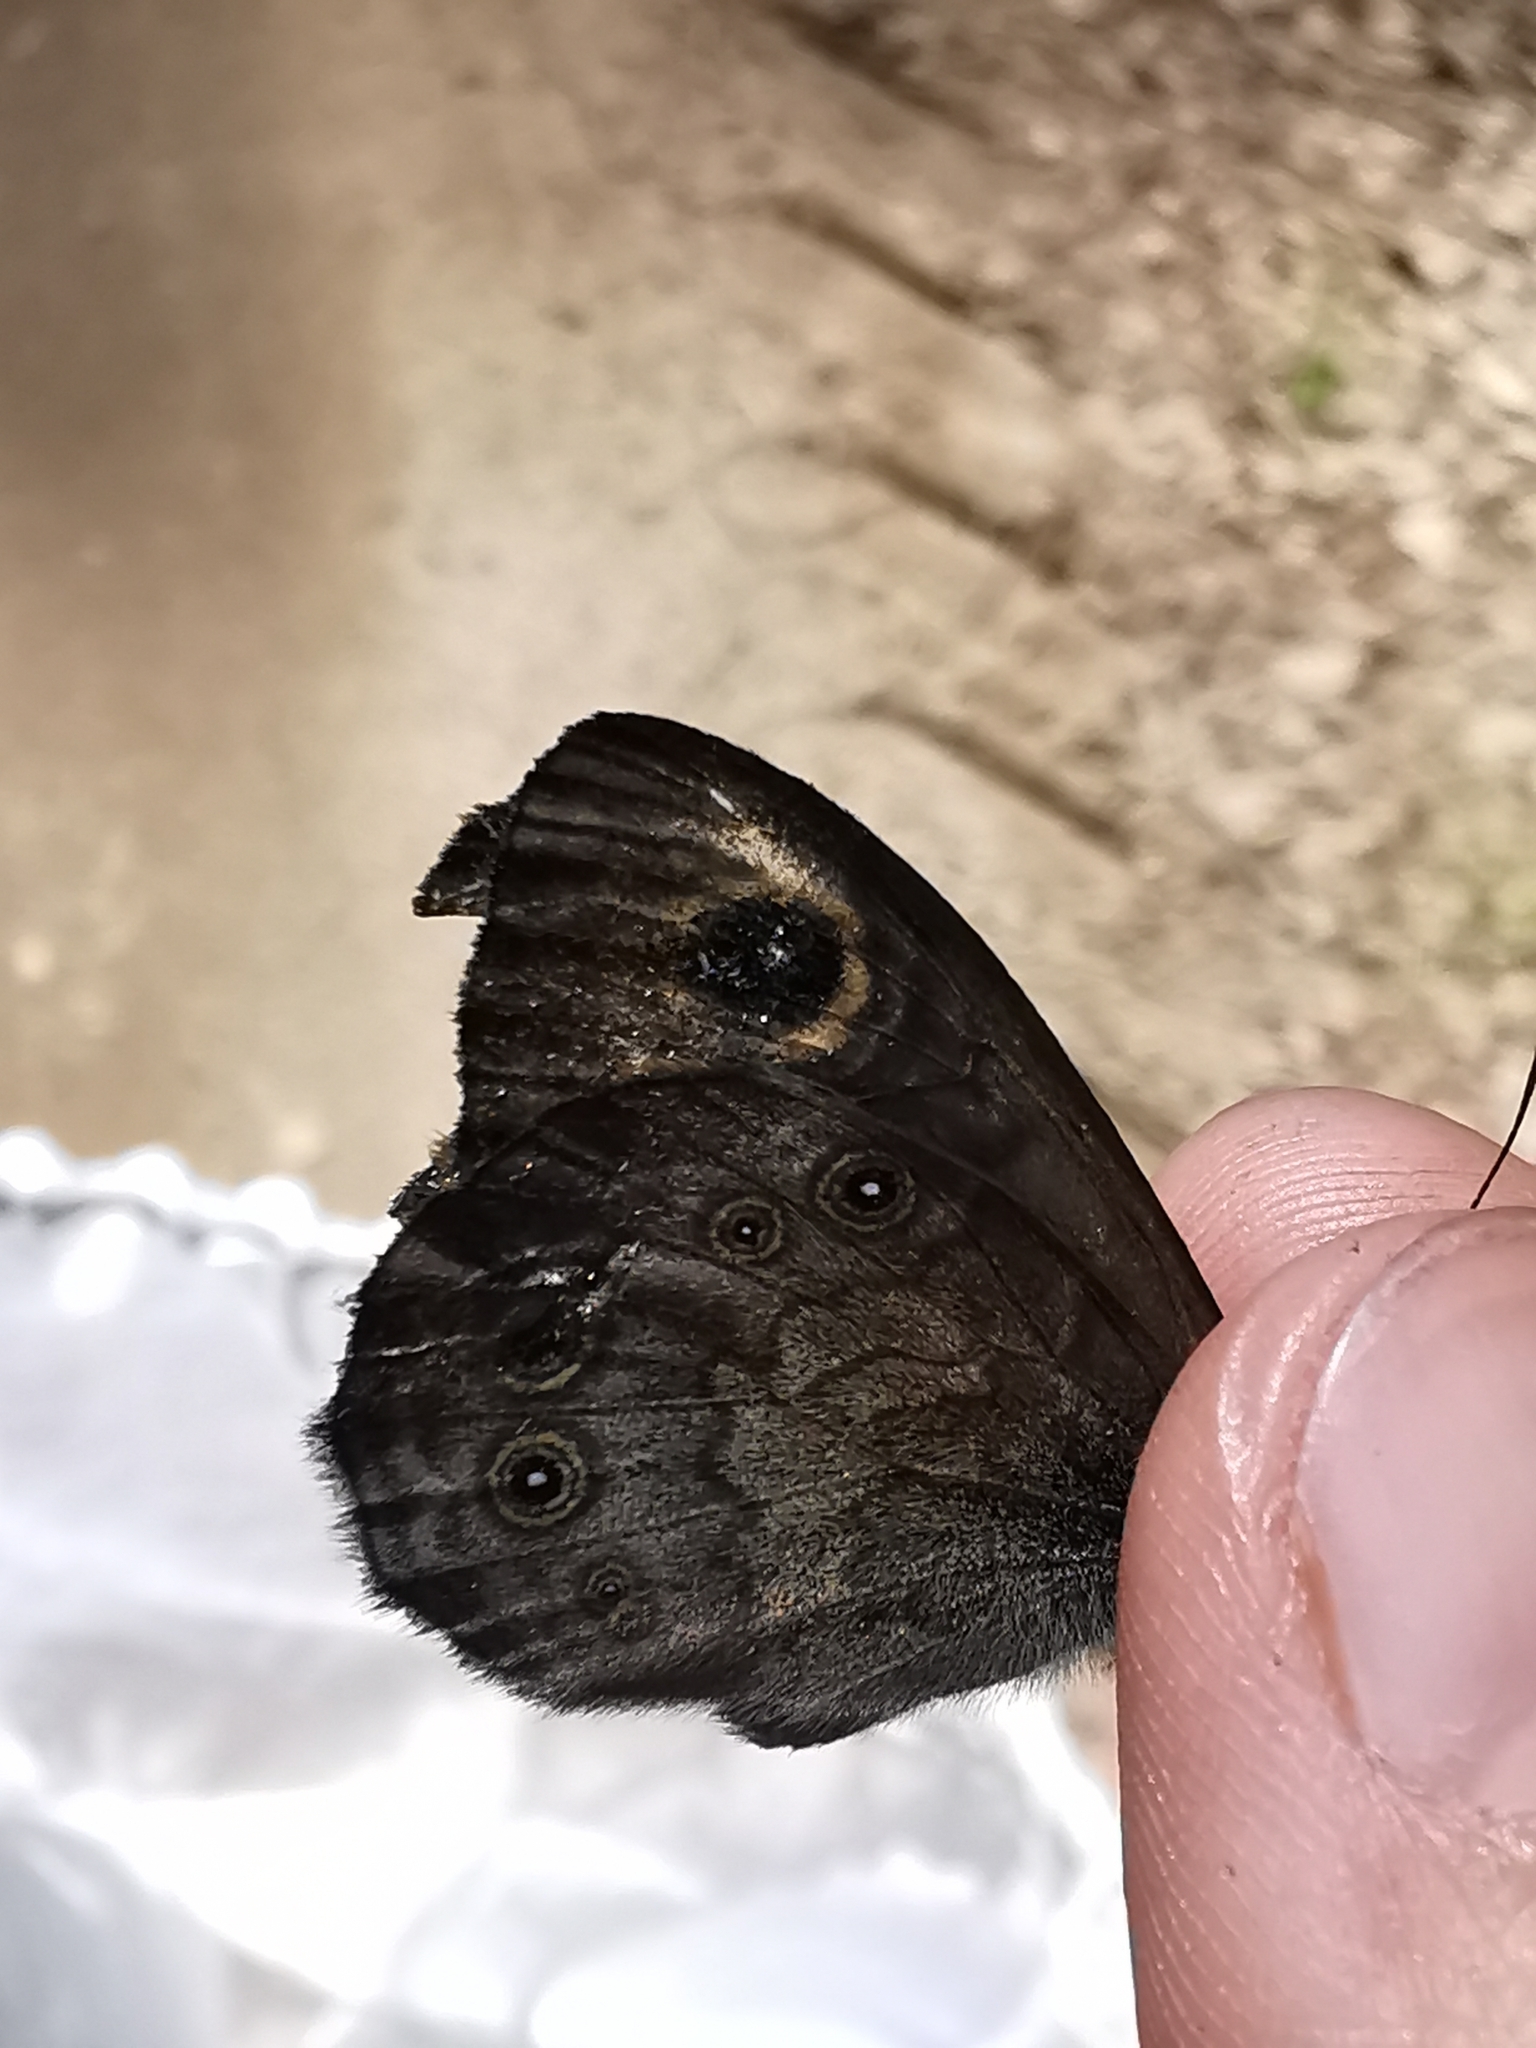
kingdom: Animalia
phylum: Arthropoda
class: Insecta
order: Lepidoptera
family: Nymphalidae
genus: Pararge
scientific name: Pararge Lasiommata maera
